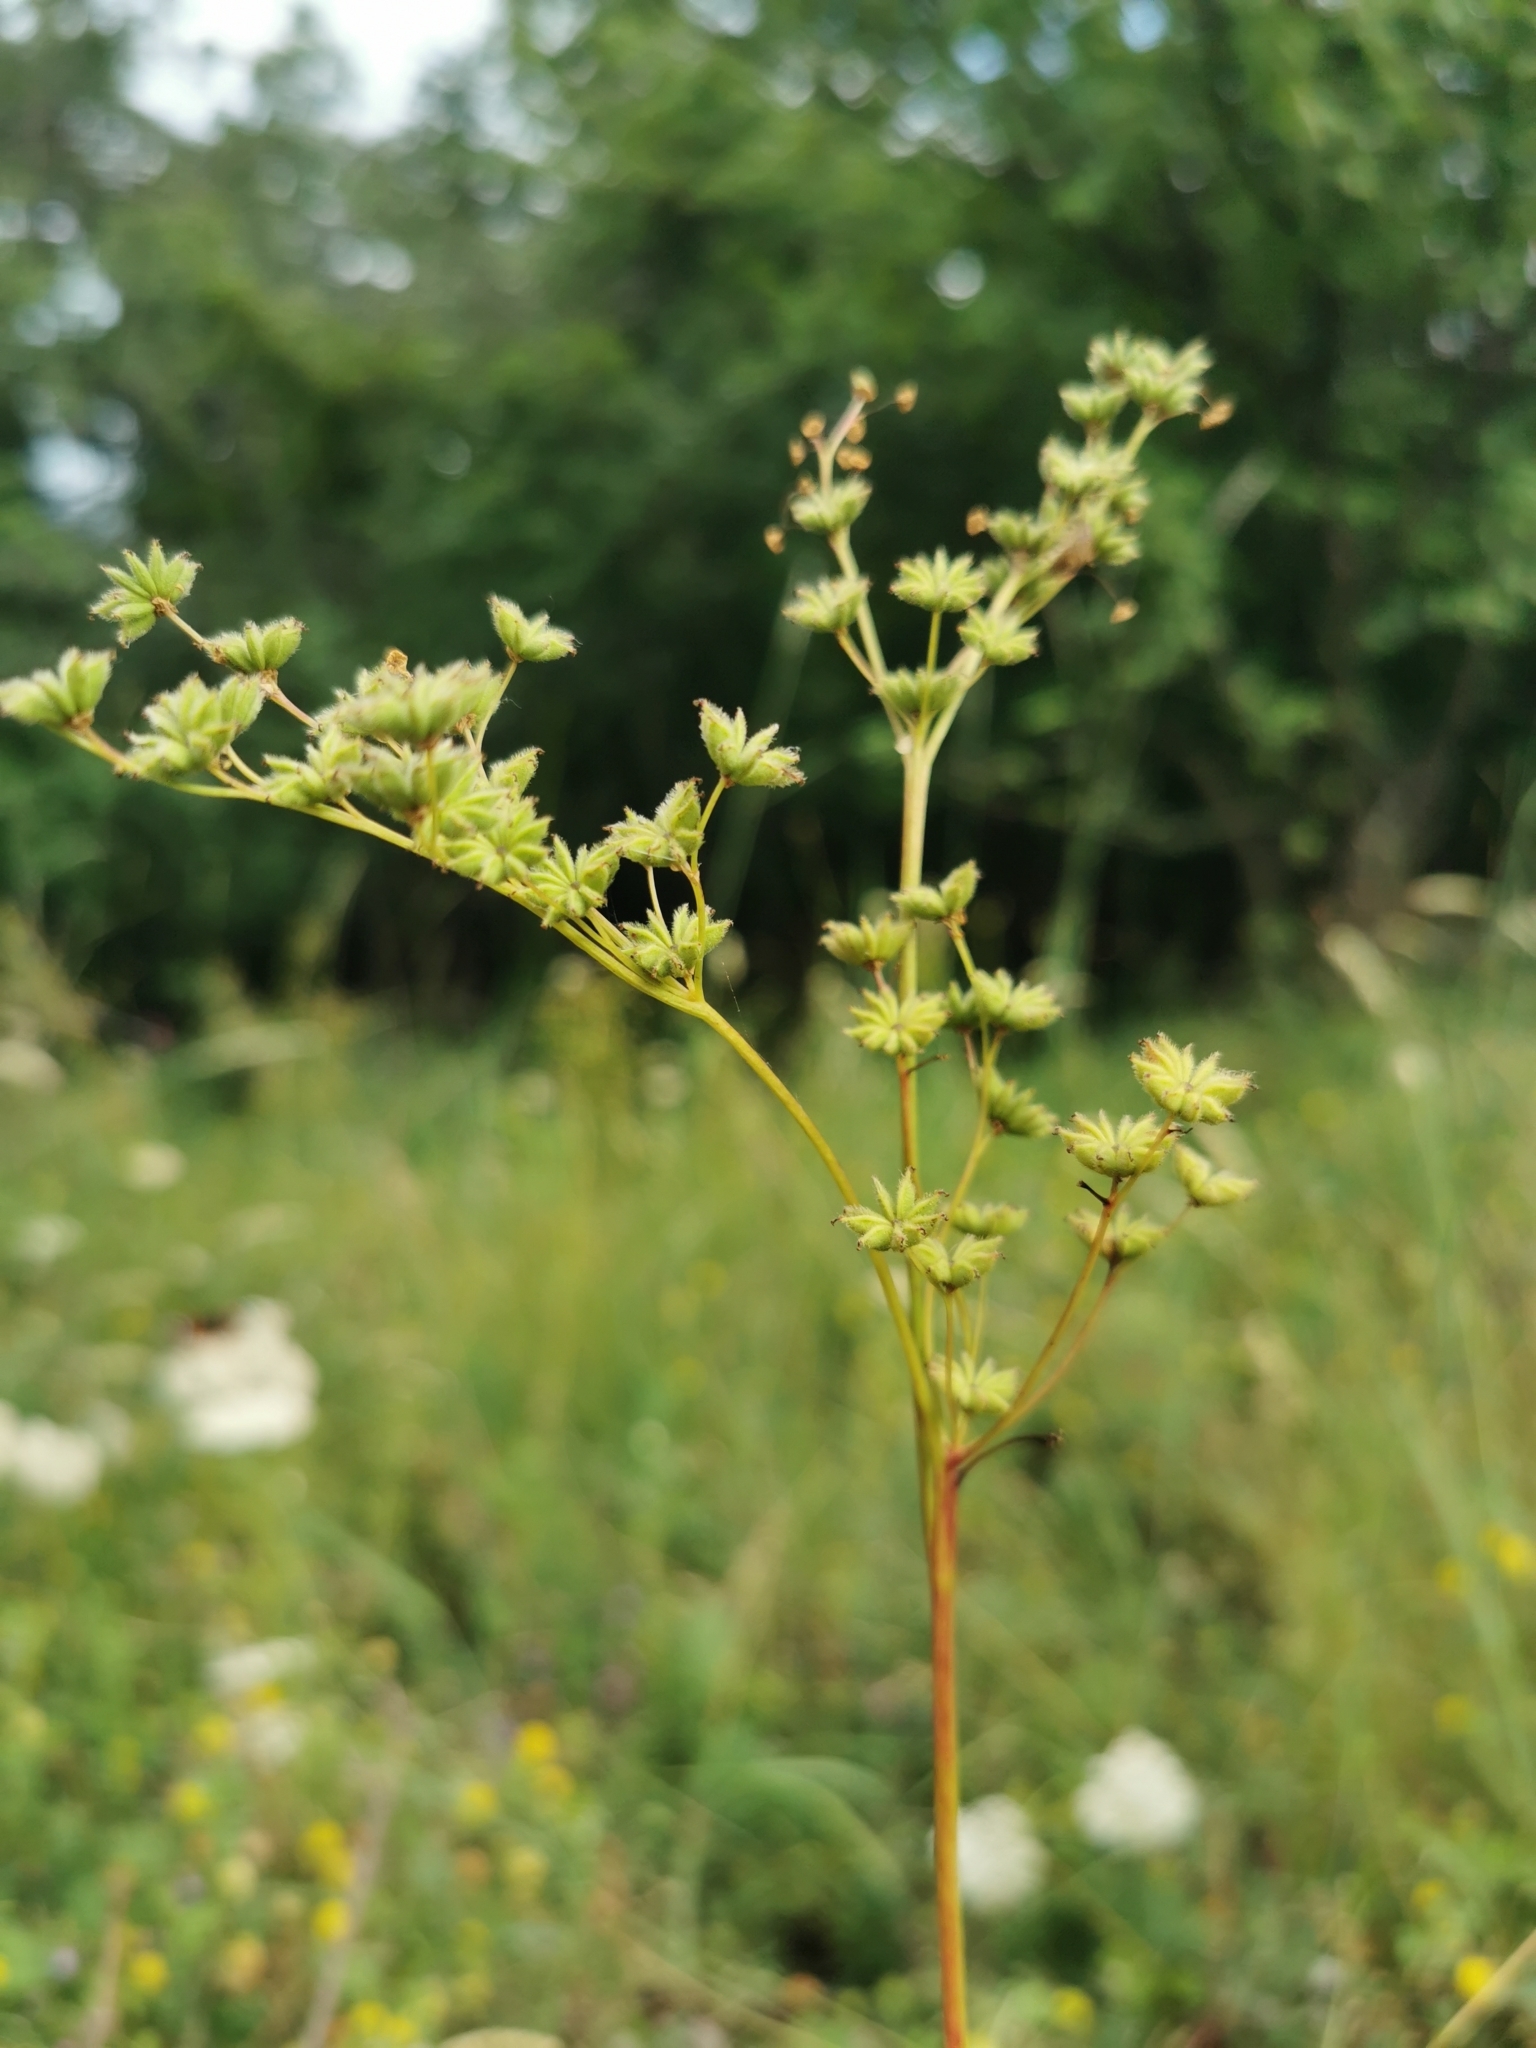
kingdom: Plantae
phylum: Tracheophyta
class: Magnoliopsida
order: Rosales
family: Rosaceae
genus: Filipendula
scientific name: Filipendula vulgaris
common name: Dropwort
